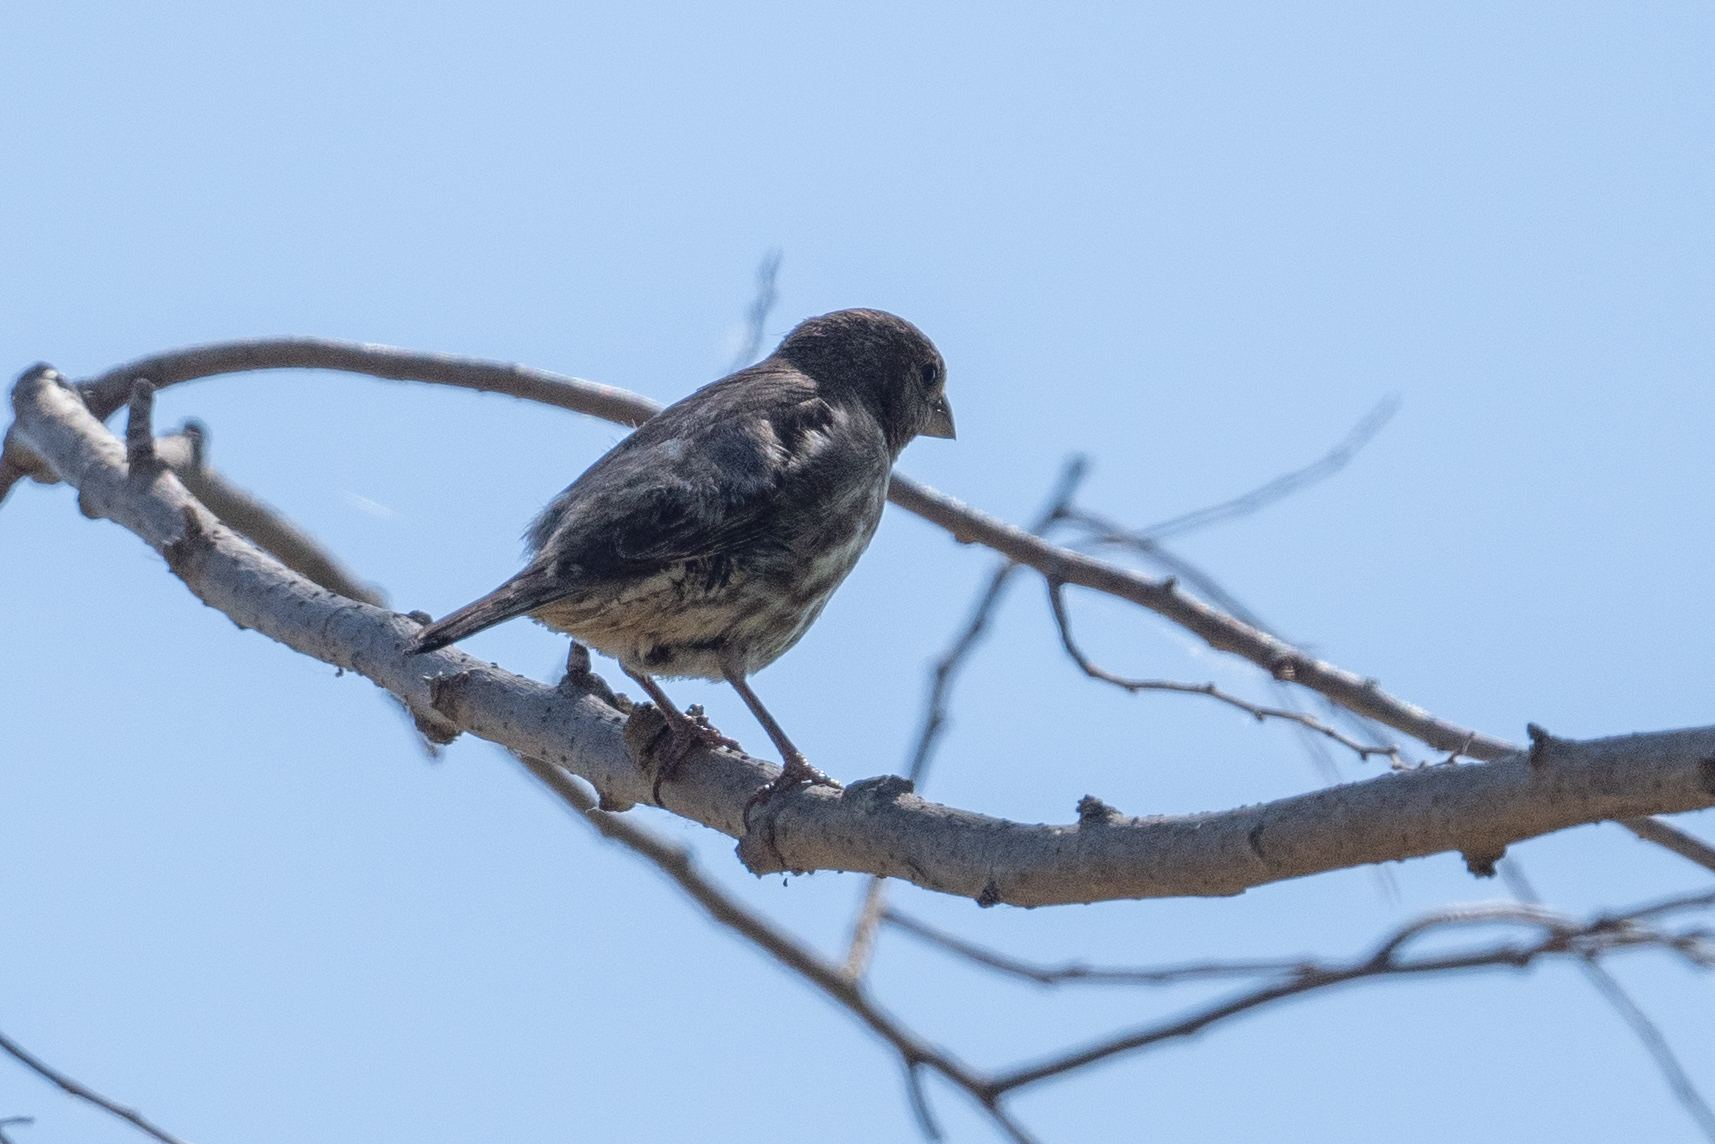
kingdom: Animalia
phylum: Chordata
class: Aves
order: Passeriformes
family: Fringillidae
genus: Haemorhous
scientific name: Haemorhous mexicanus
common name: House finch
